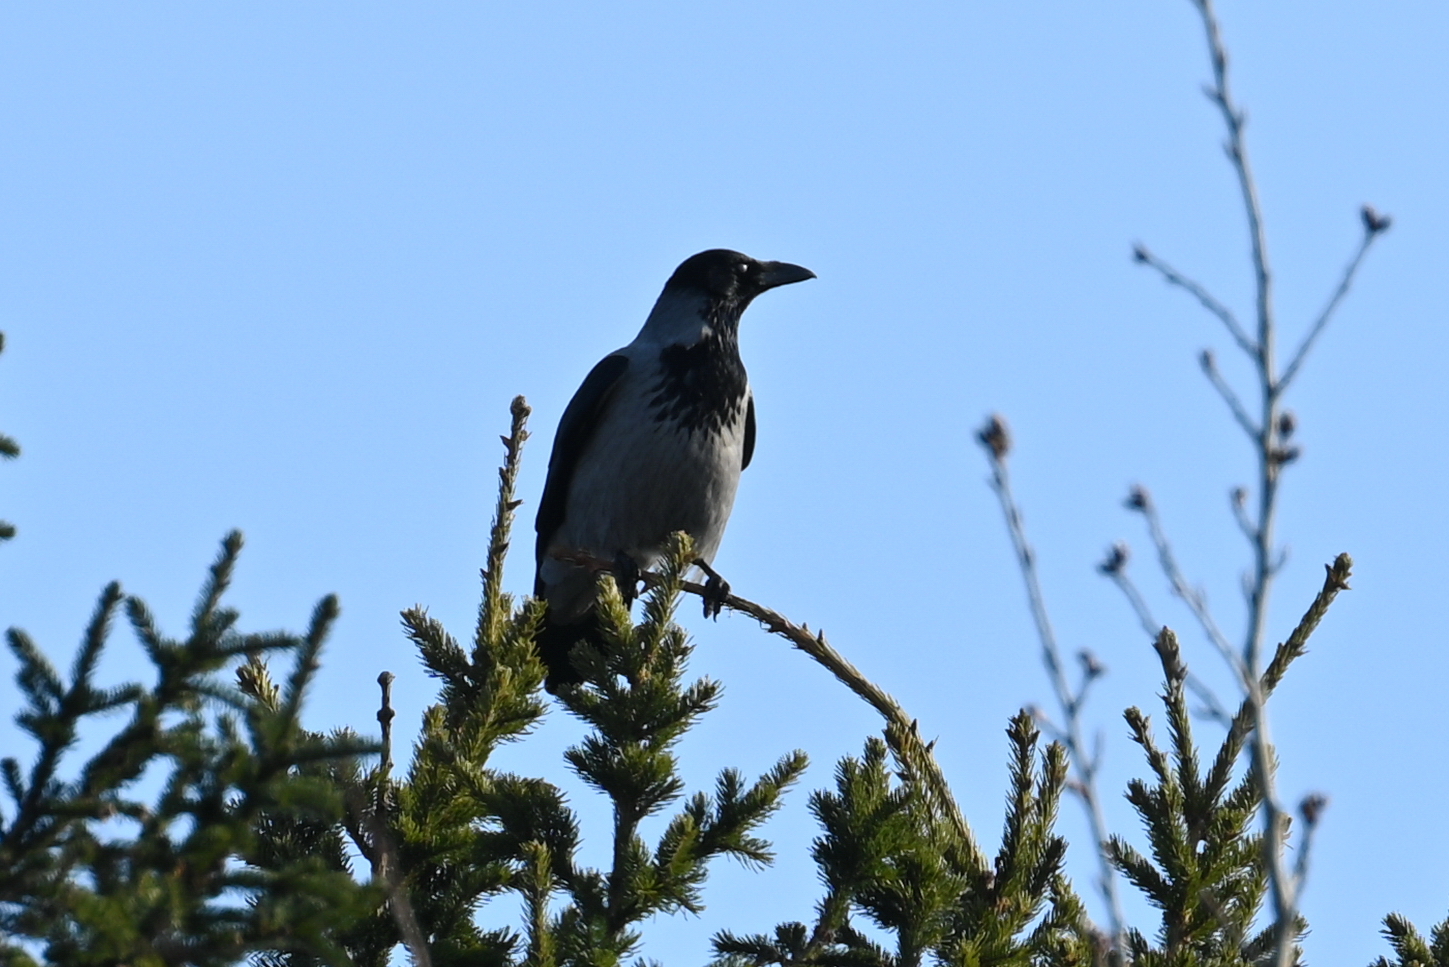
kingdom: Animalia
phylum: Chordata
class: Aves
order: Passeriformes
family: Corvidae
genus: Corvus
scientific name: Corvus cornix
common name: Hooded crow
